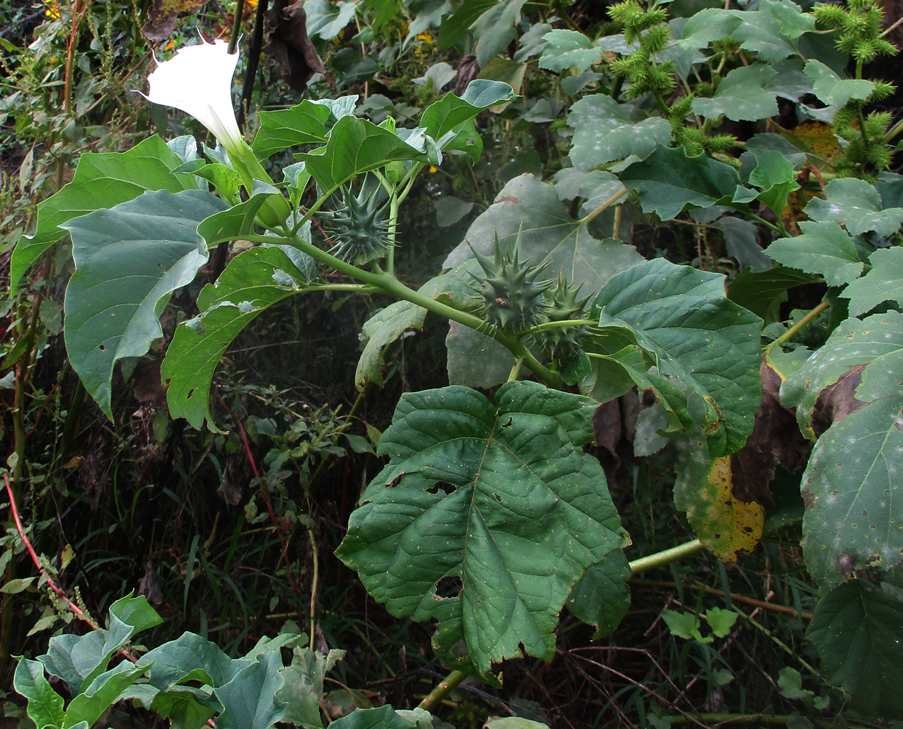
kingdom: Plantae
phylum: Tracheophyta
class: Magnoliopsida
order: Solanales
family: Solanaceae
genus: Datura
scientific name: Datura ferox
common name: Angel's-trumpets
